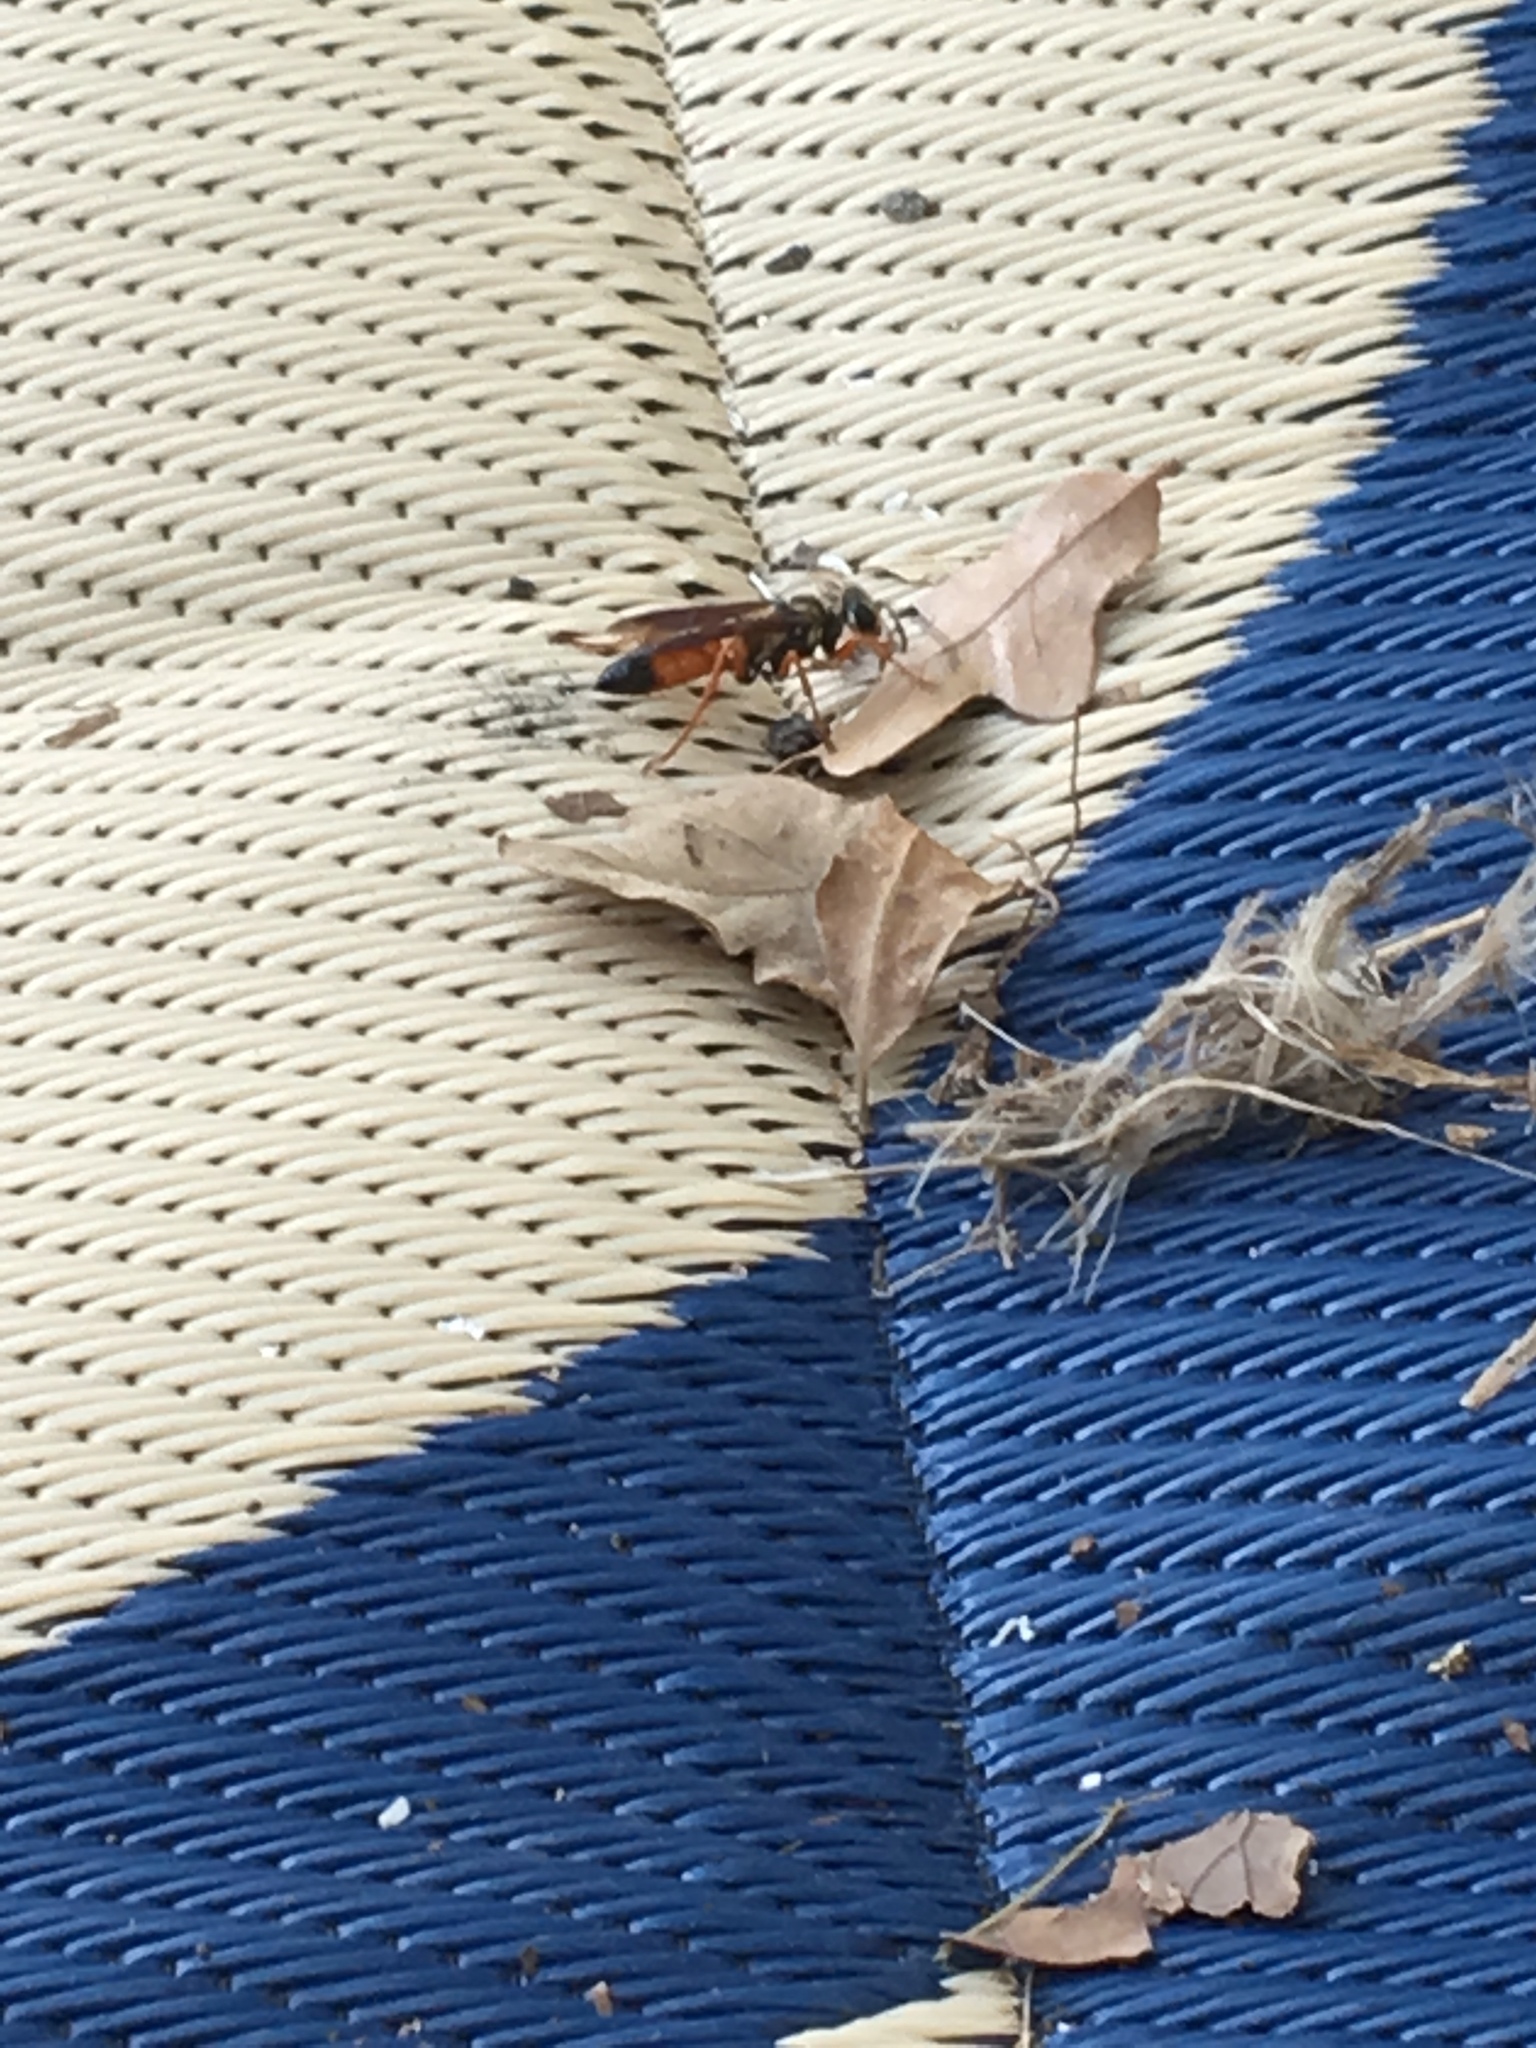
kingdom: Animalia
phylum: Arthropoda
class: Insecta
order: Hymenoptera
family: Sphecidae
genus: Sphex
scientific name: Sphex ichneumoneus
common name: Great golden digger wasp
